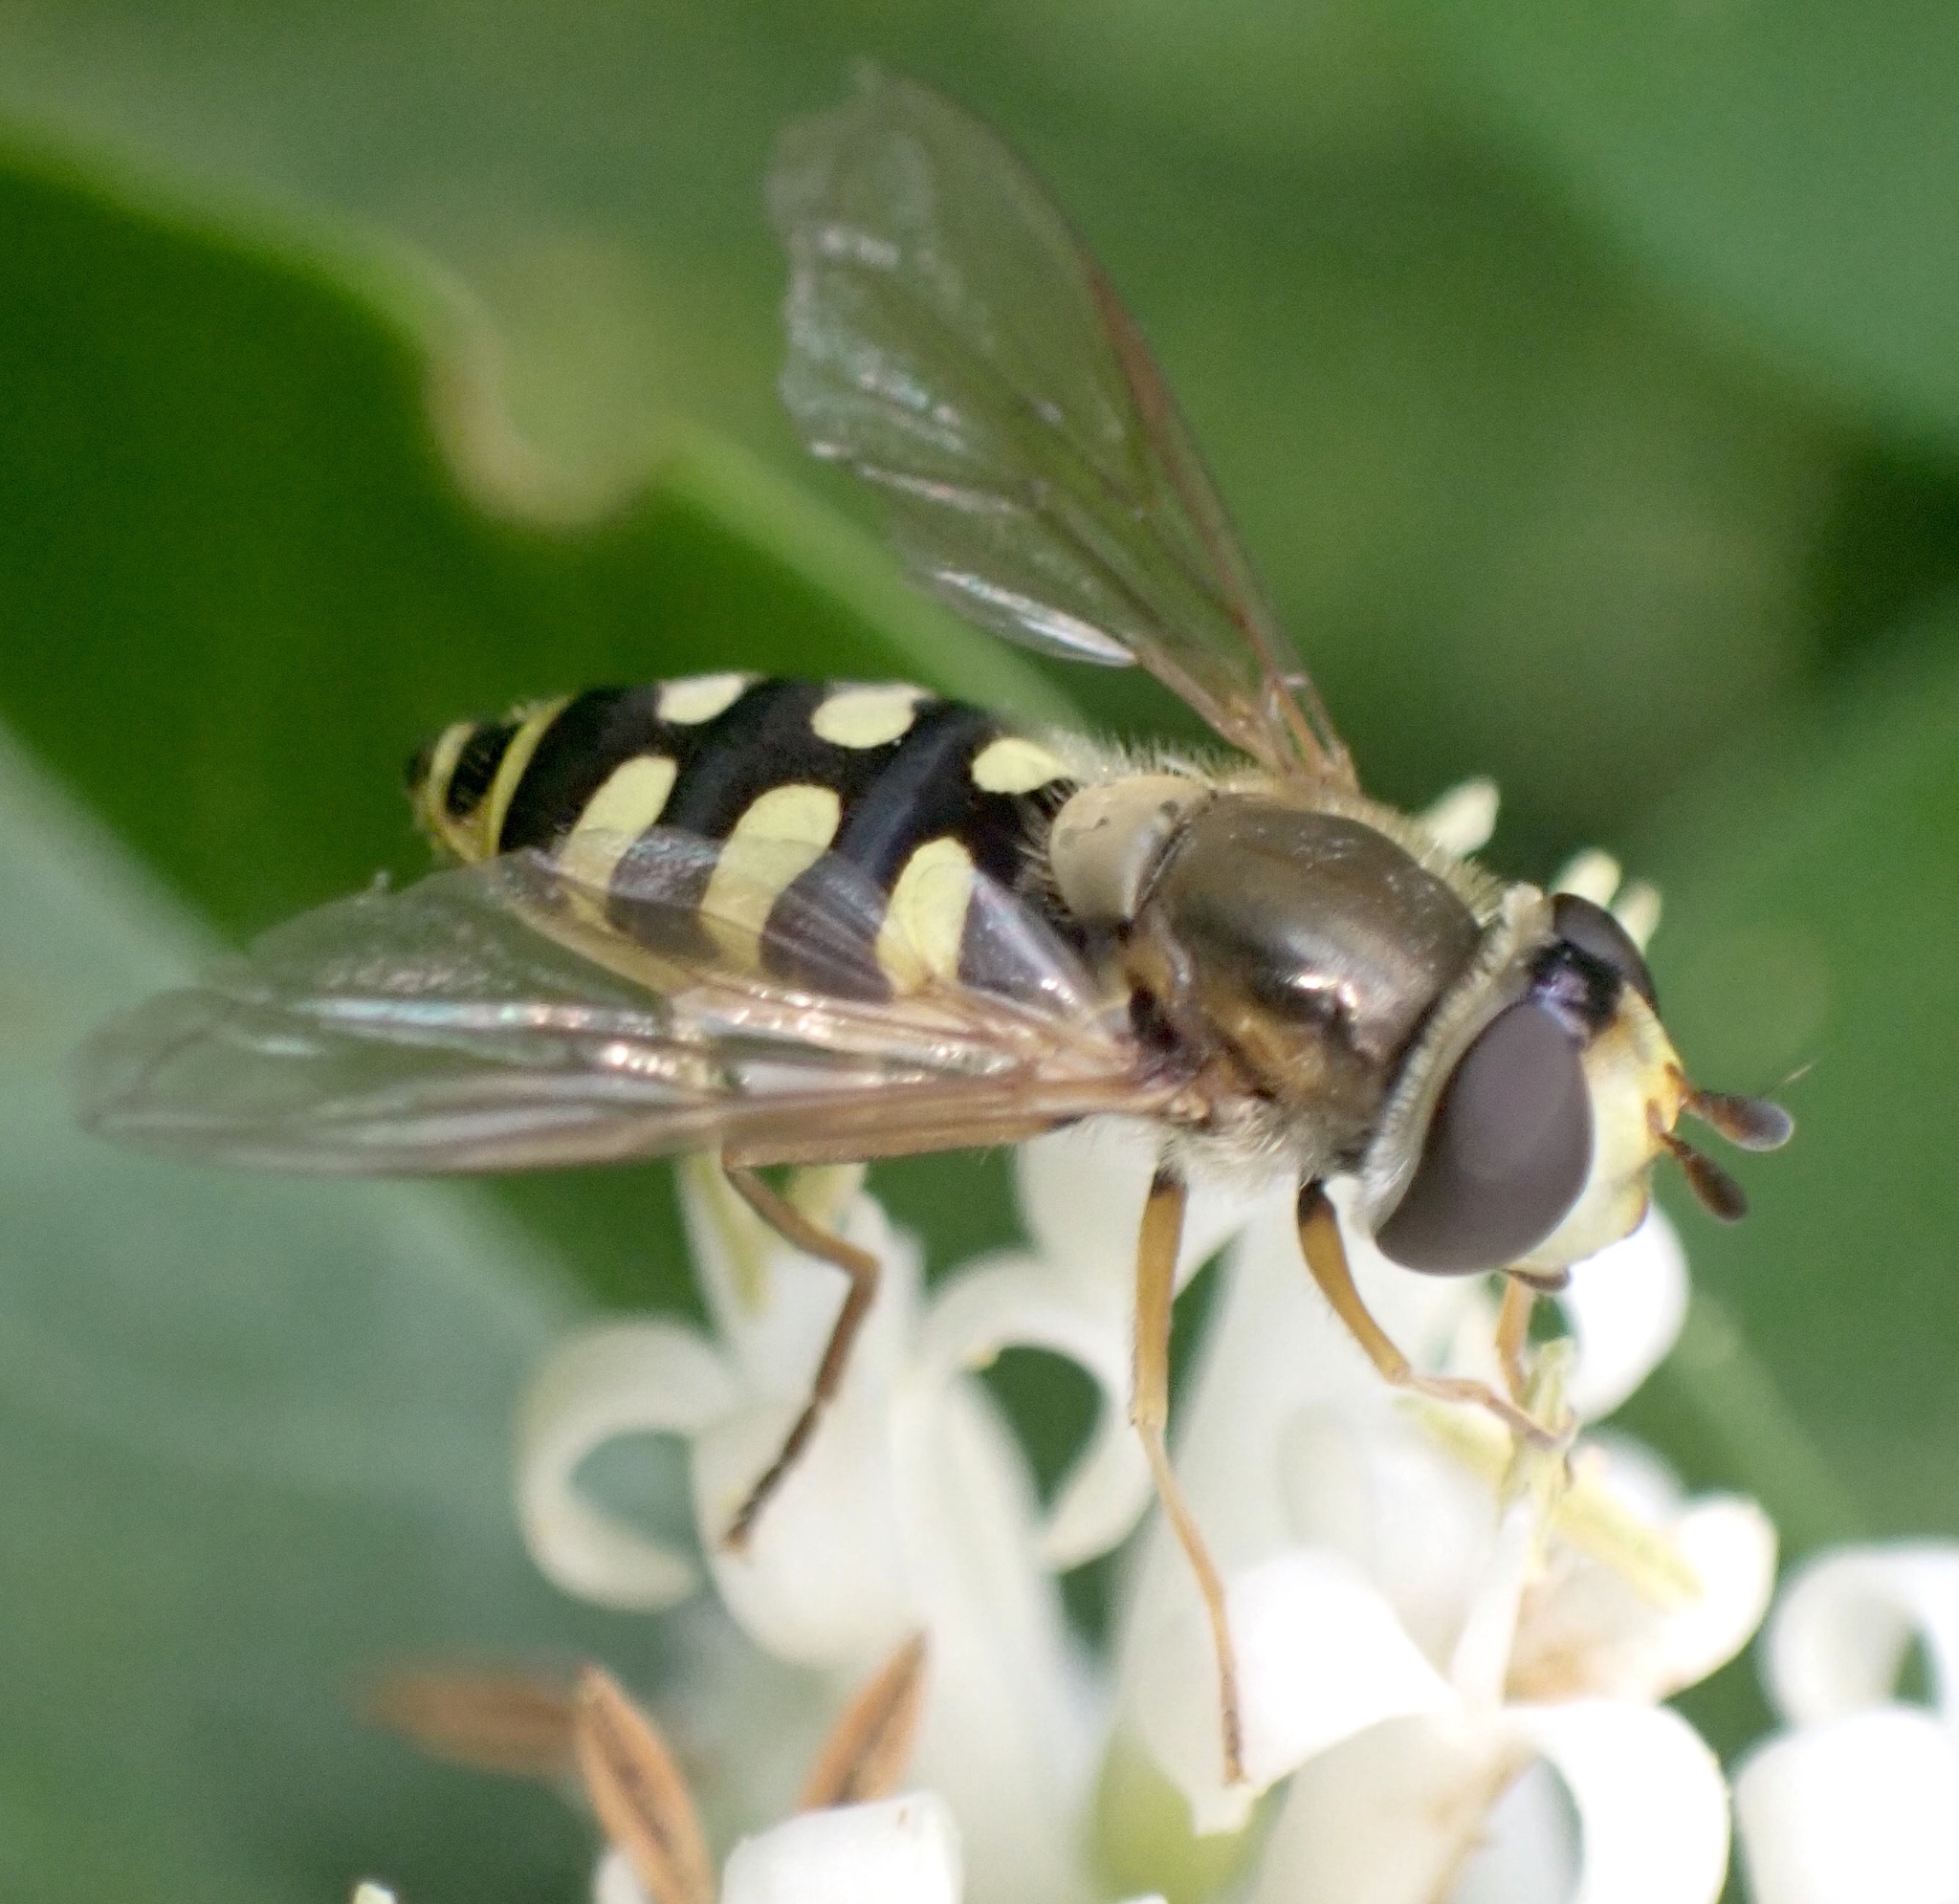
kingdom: Animalia
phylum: Arthropoda
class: Insecta
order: Diptera
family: Syrphidae
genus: Eupeodes
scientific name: Eupeodes corollae
